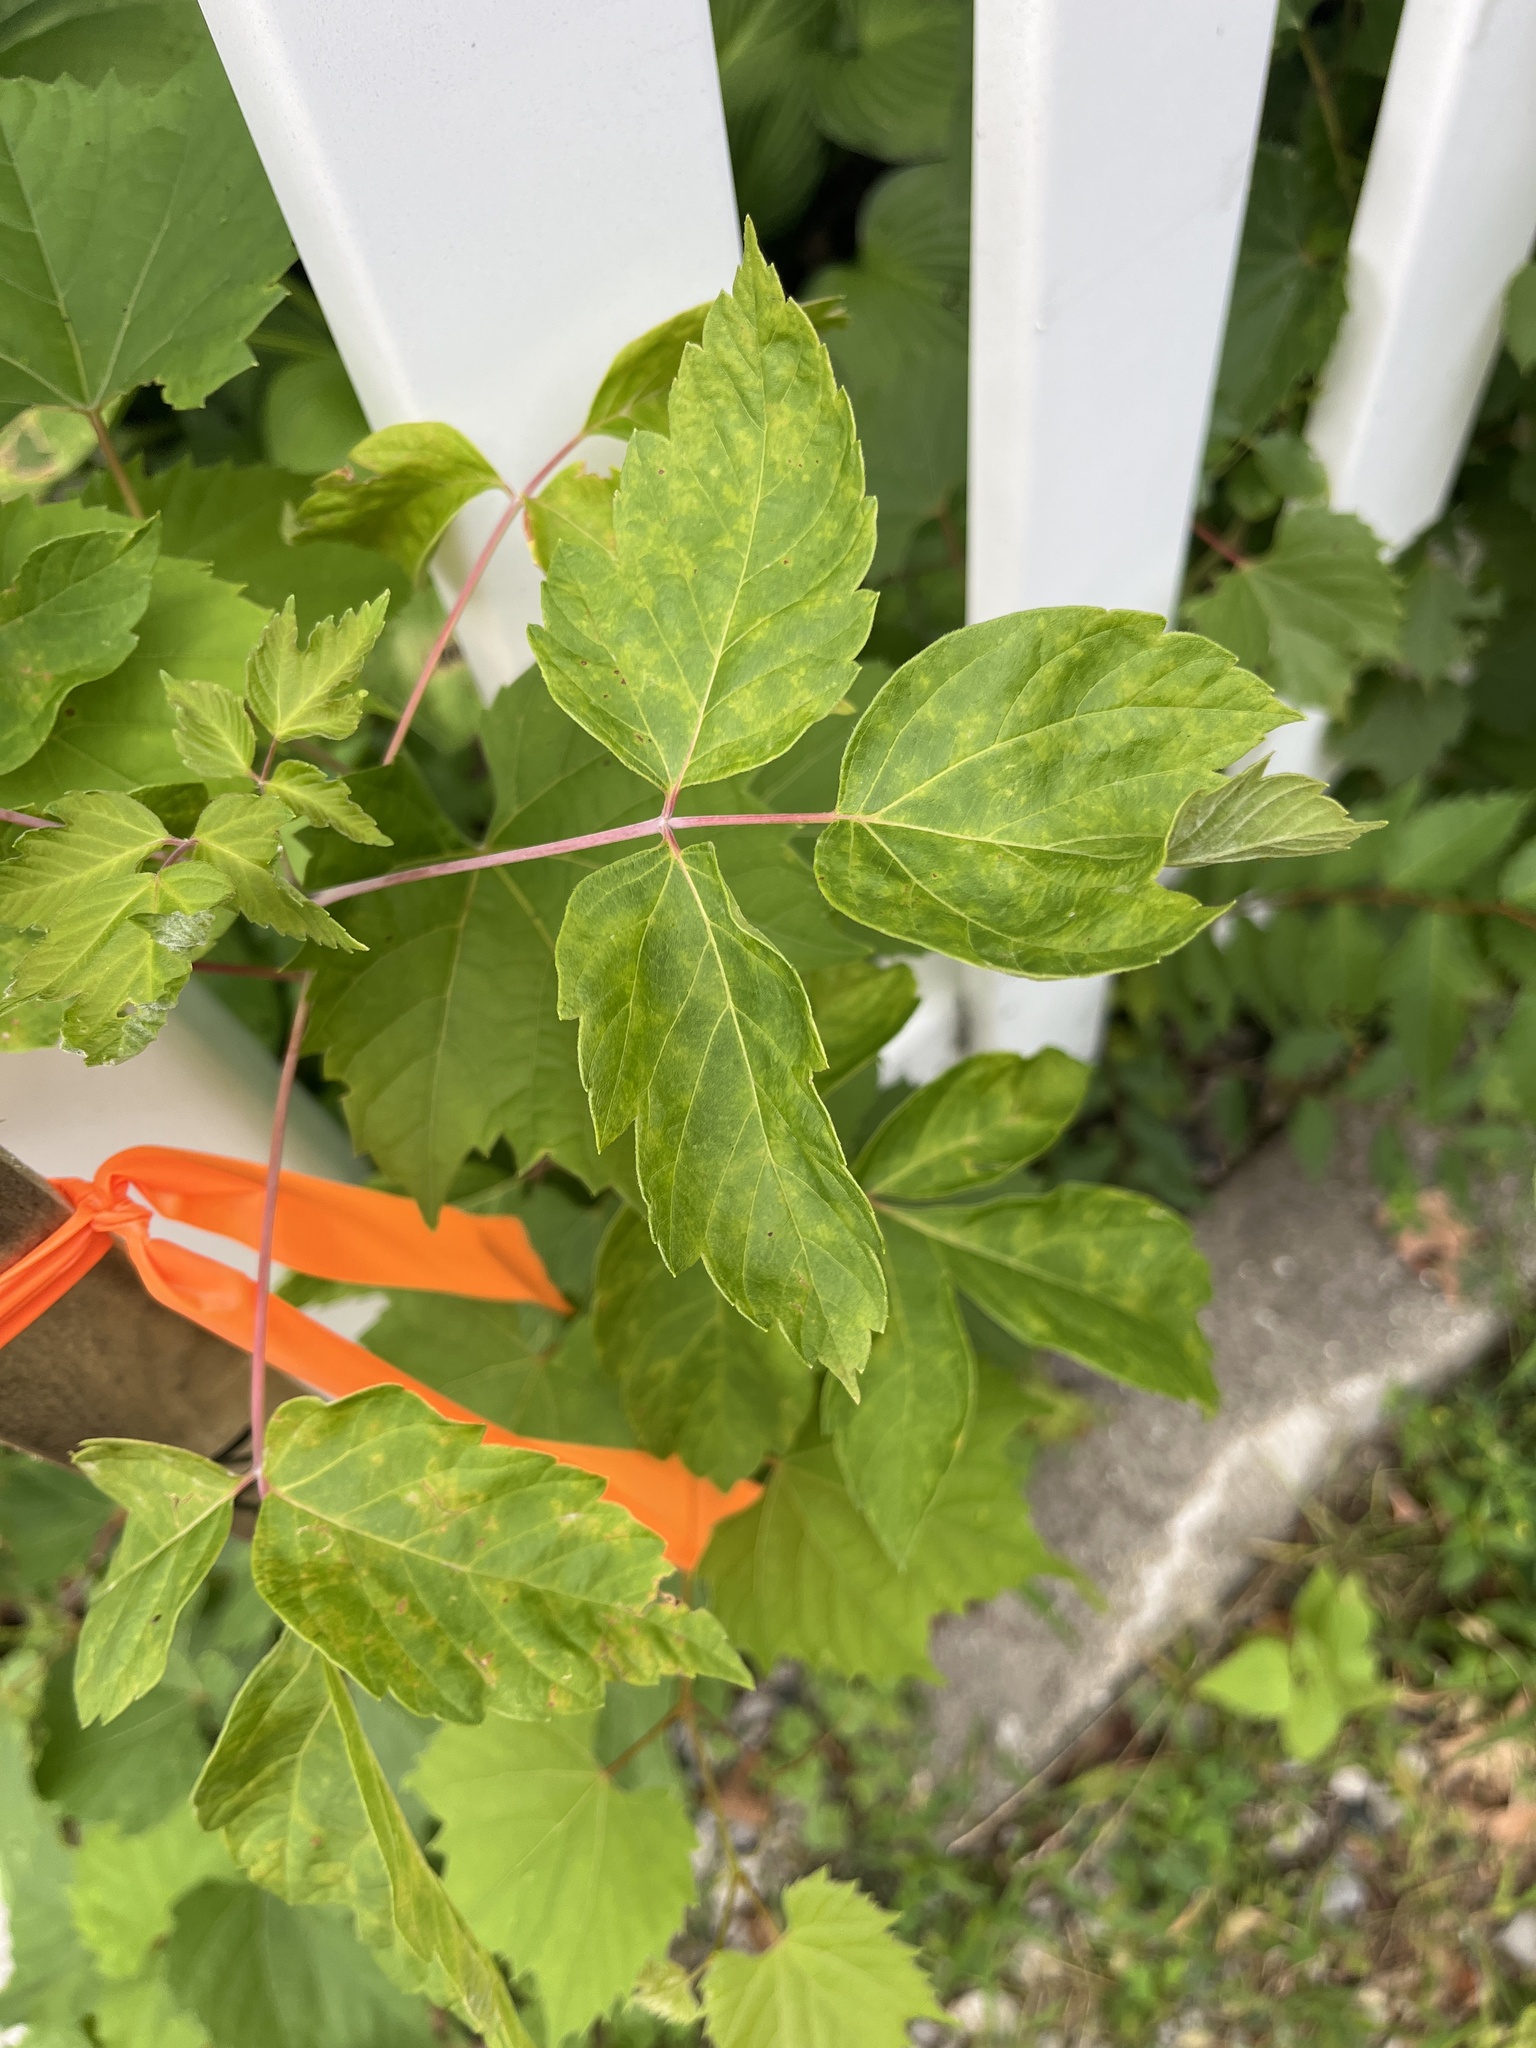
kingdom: Plantae
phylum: Tracheophyta
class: Magnoliopsida
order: Sapindales
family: Sapindaceae
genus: Acer
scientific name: Acer negundo
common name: Ashleaf maple
